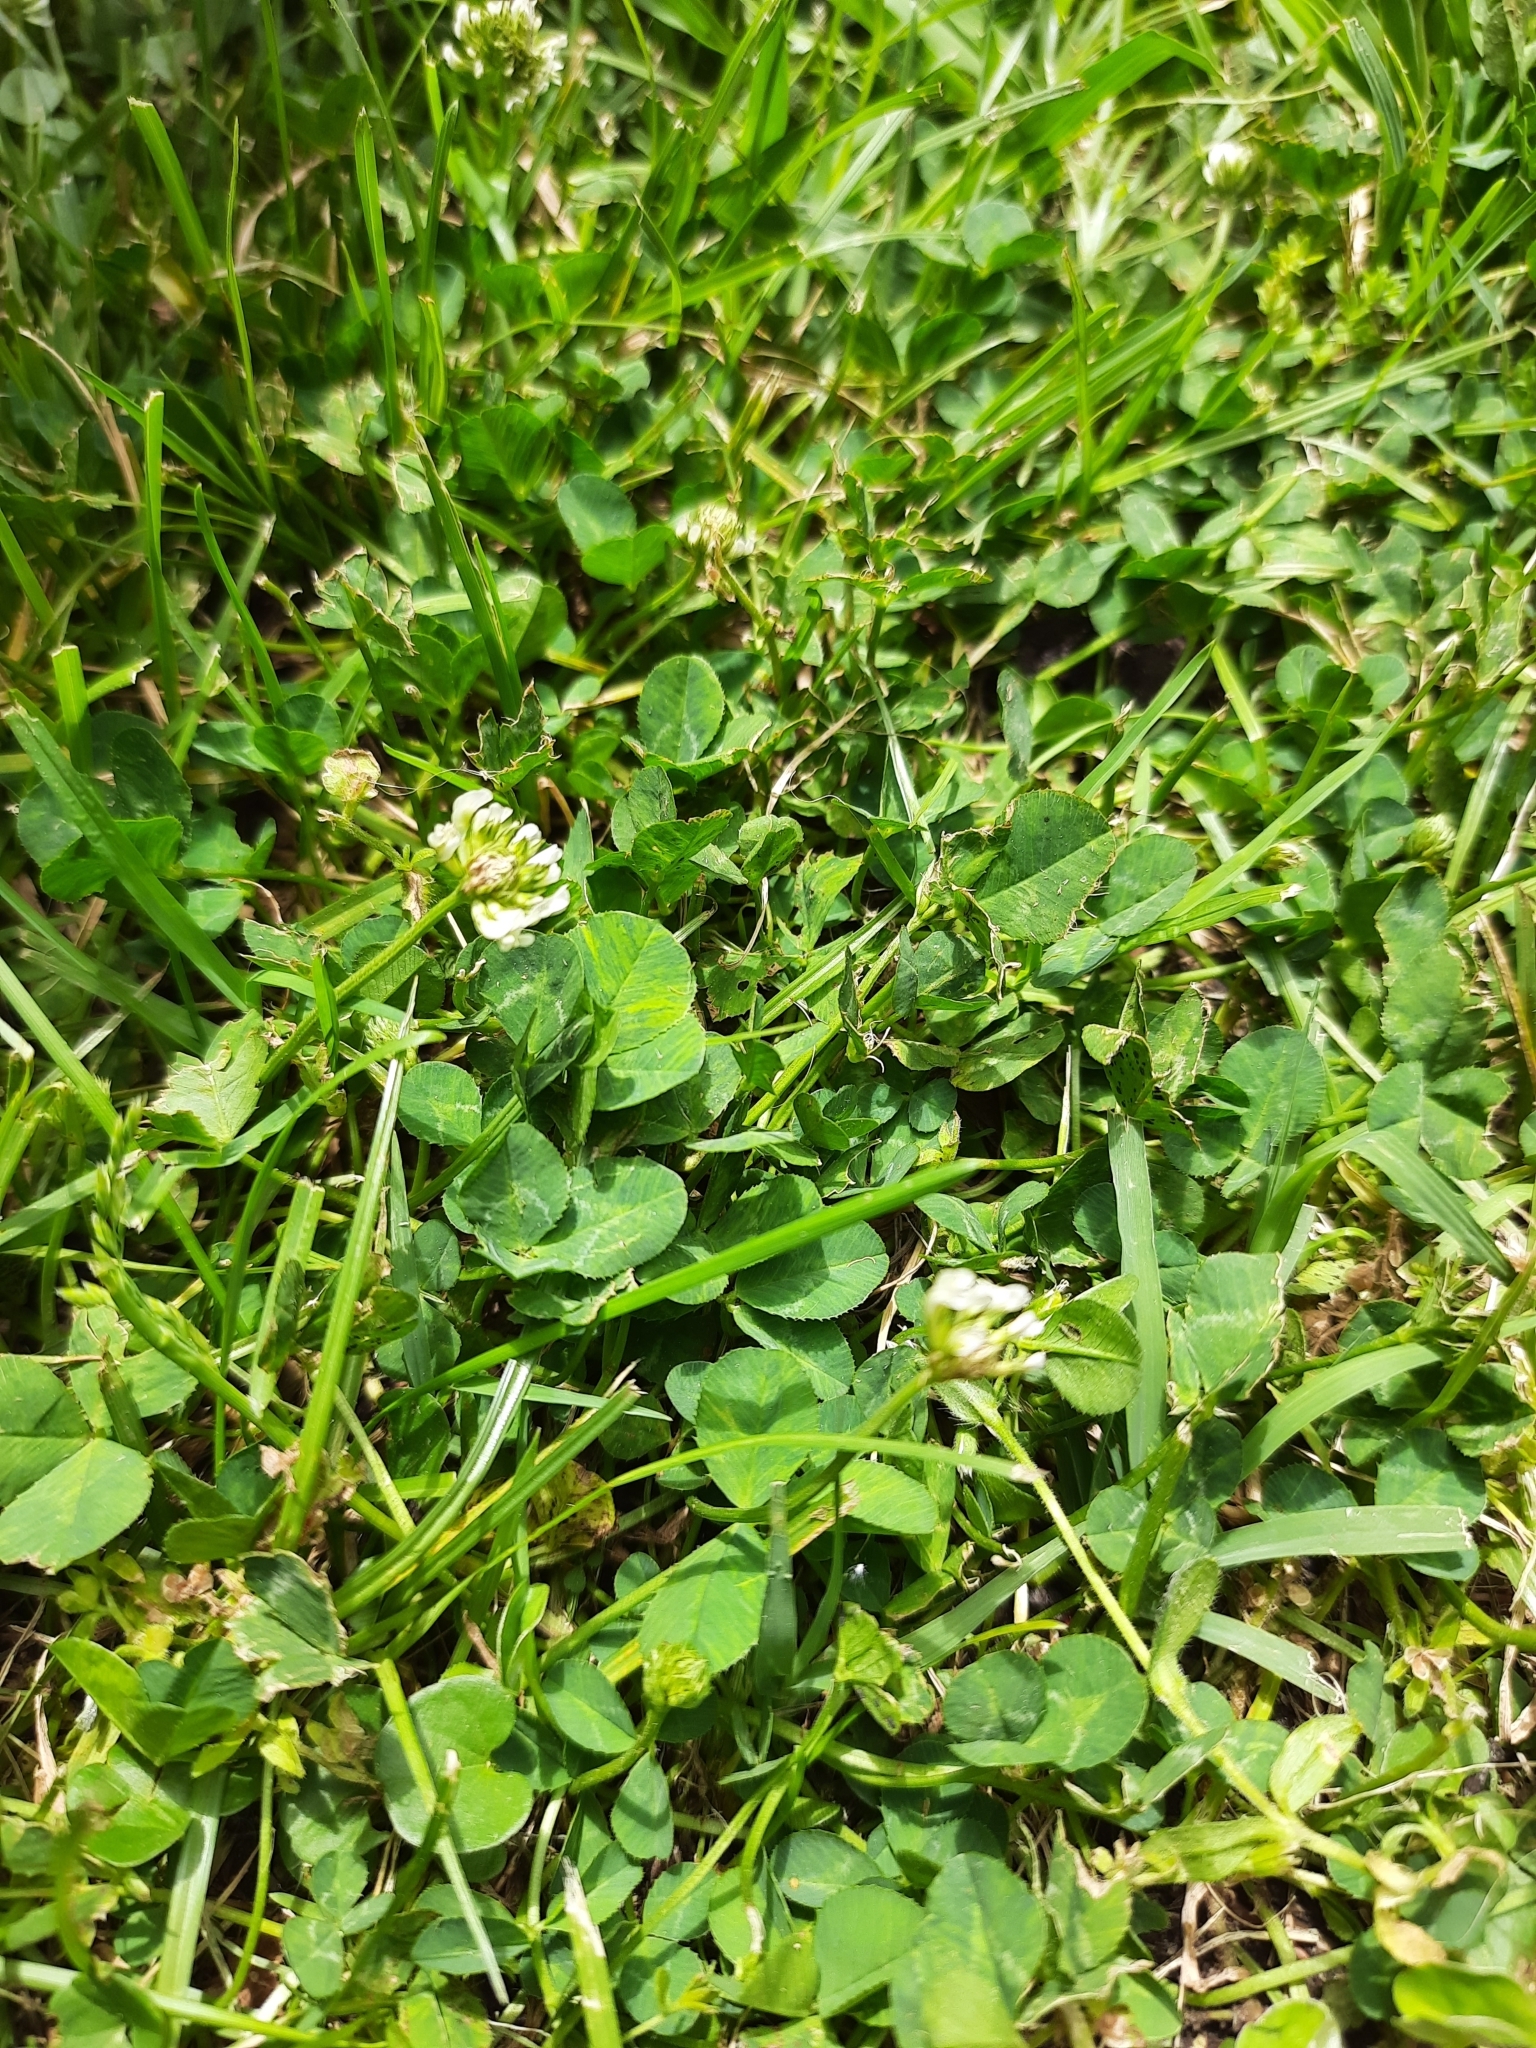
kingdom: Plantae
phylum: Tracheophyta
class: Magnoliopsida
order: Fabales
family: Fabaceae
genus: Trifolium
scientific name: Trifolium repens
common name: White clover
